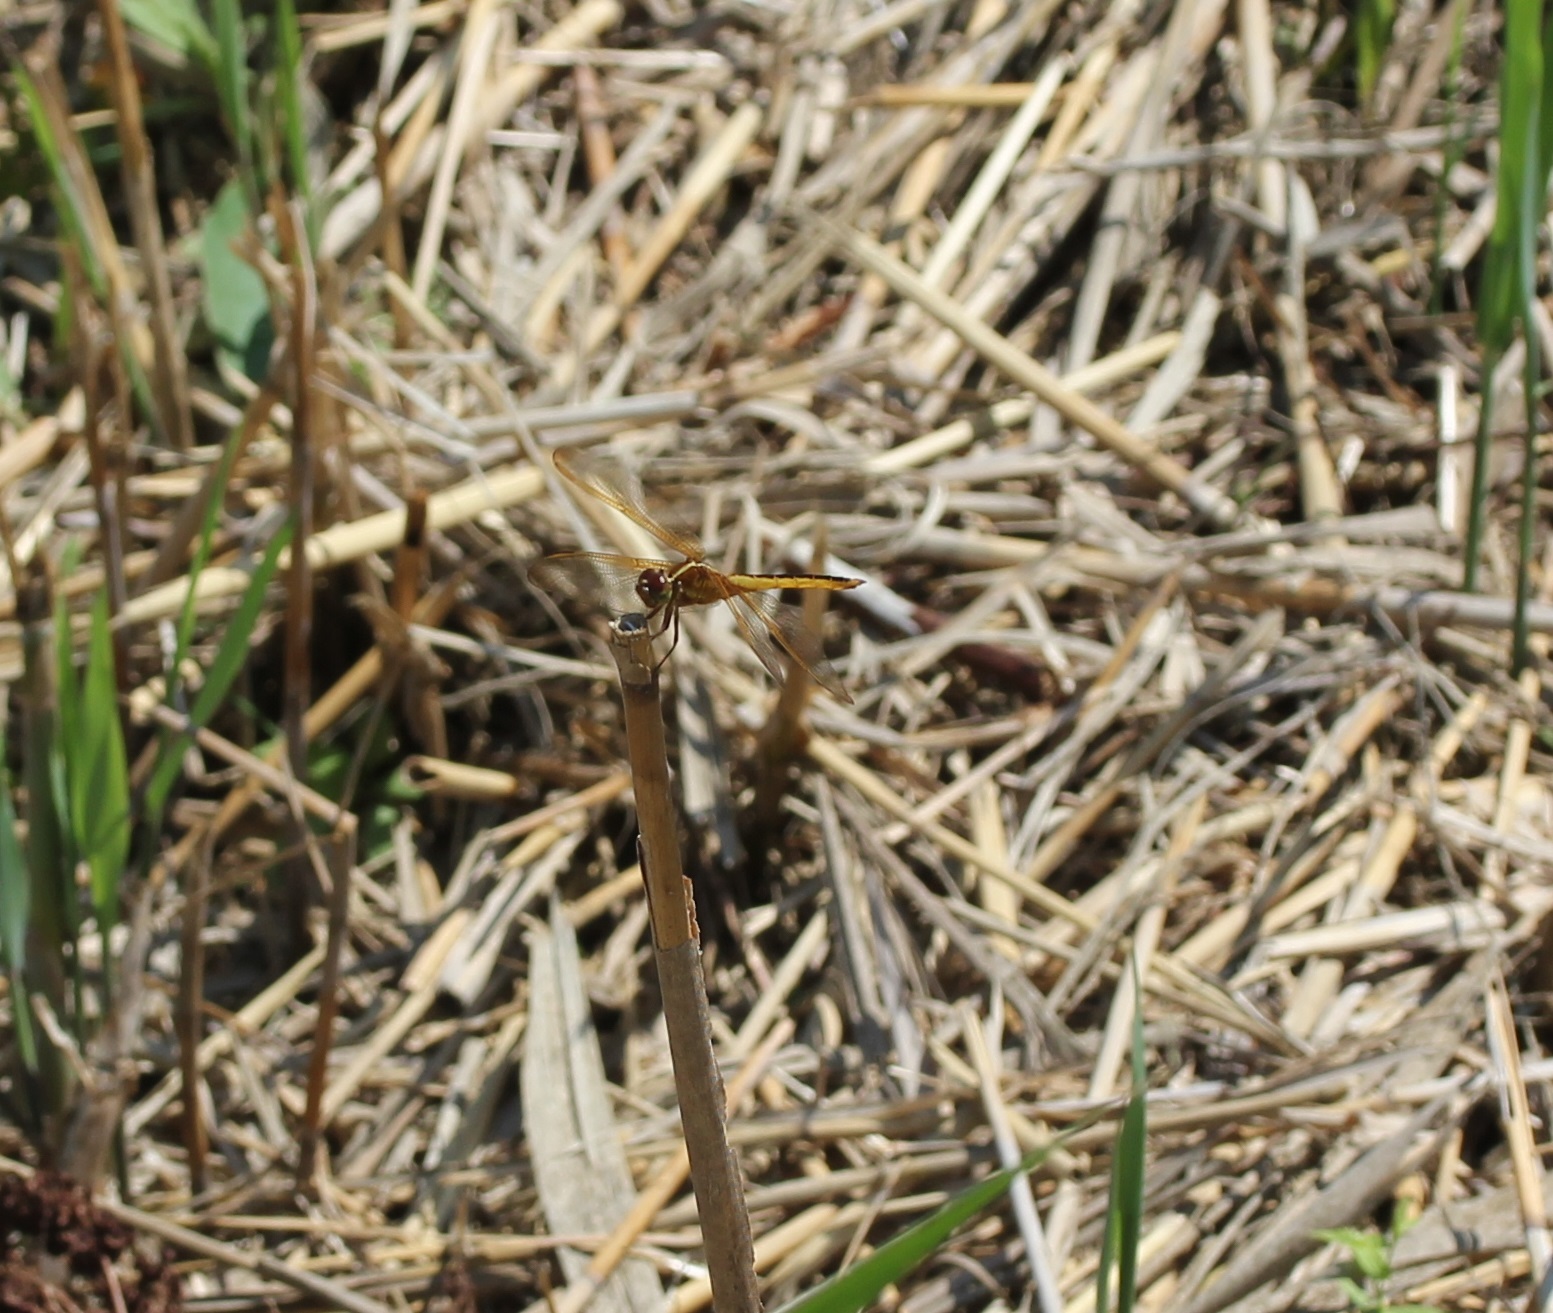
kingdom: Animalia
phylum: Arthropoda
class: Insecta
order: Odonata
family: Libellulidae
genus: Libellula
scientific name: Libellula needhami
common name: Needham's skimmer
